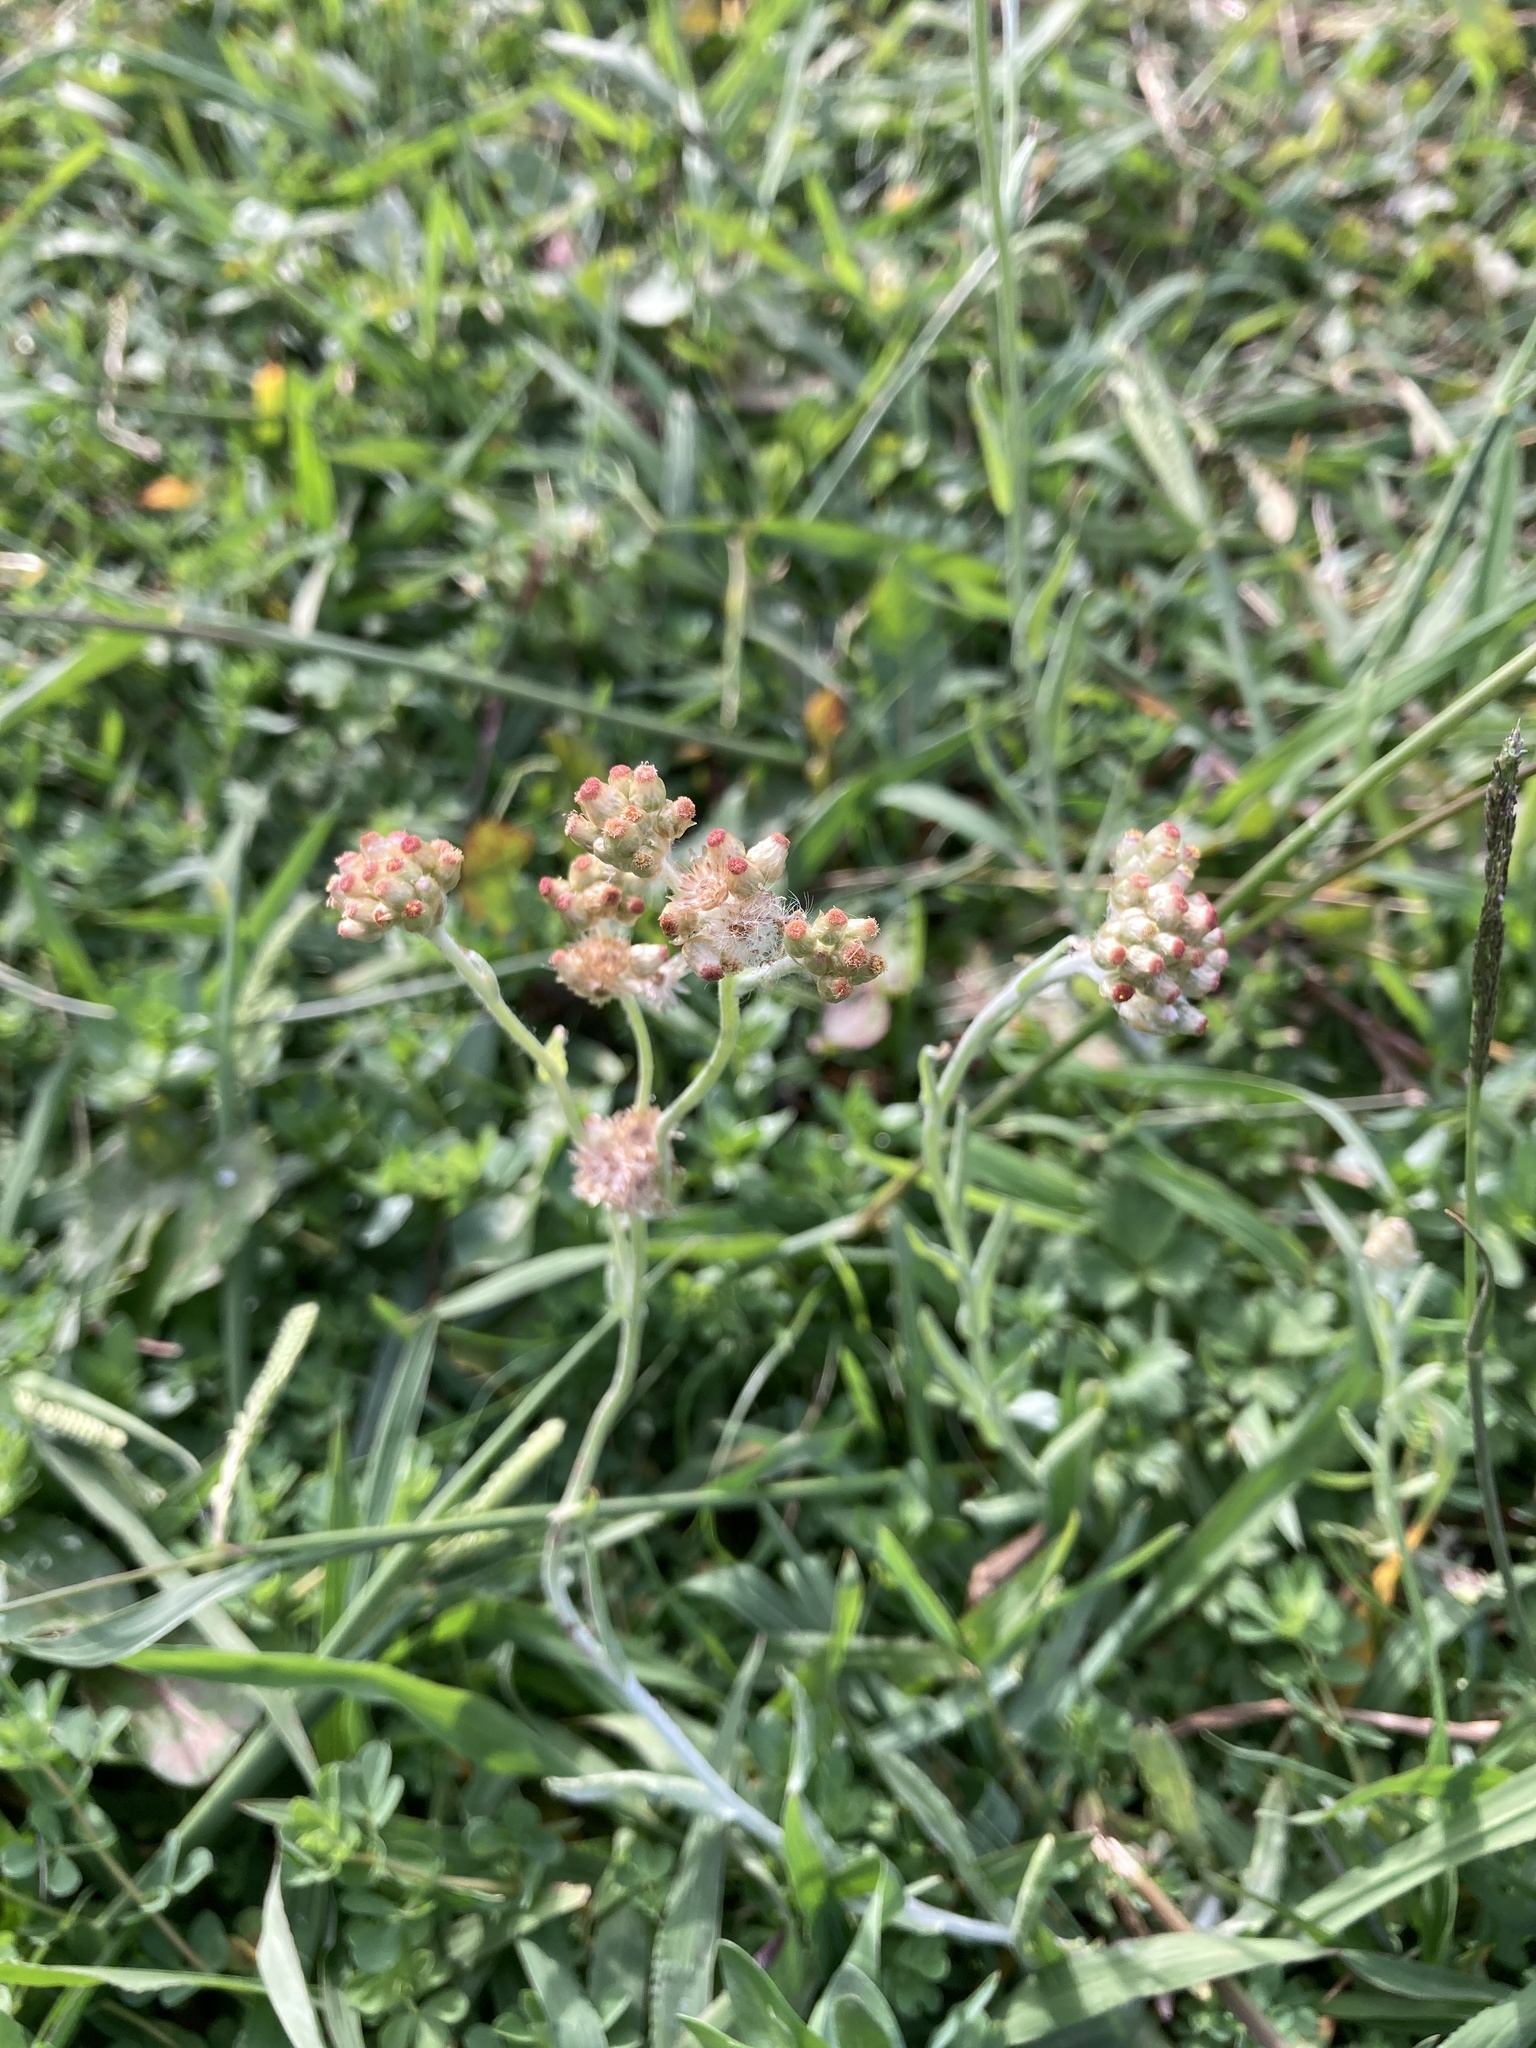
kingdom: Plantae
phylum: Tracheophyta
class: Magnoliopsida
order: Asterales
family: Asteraceae
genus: Helichrysum
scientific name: Helichrysum luteoalbum
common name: Daisy
